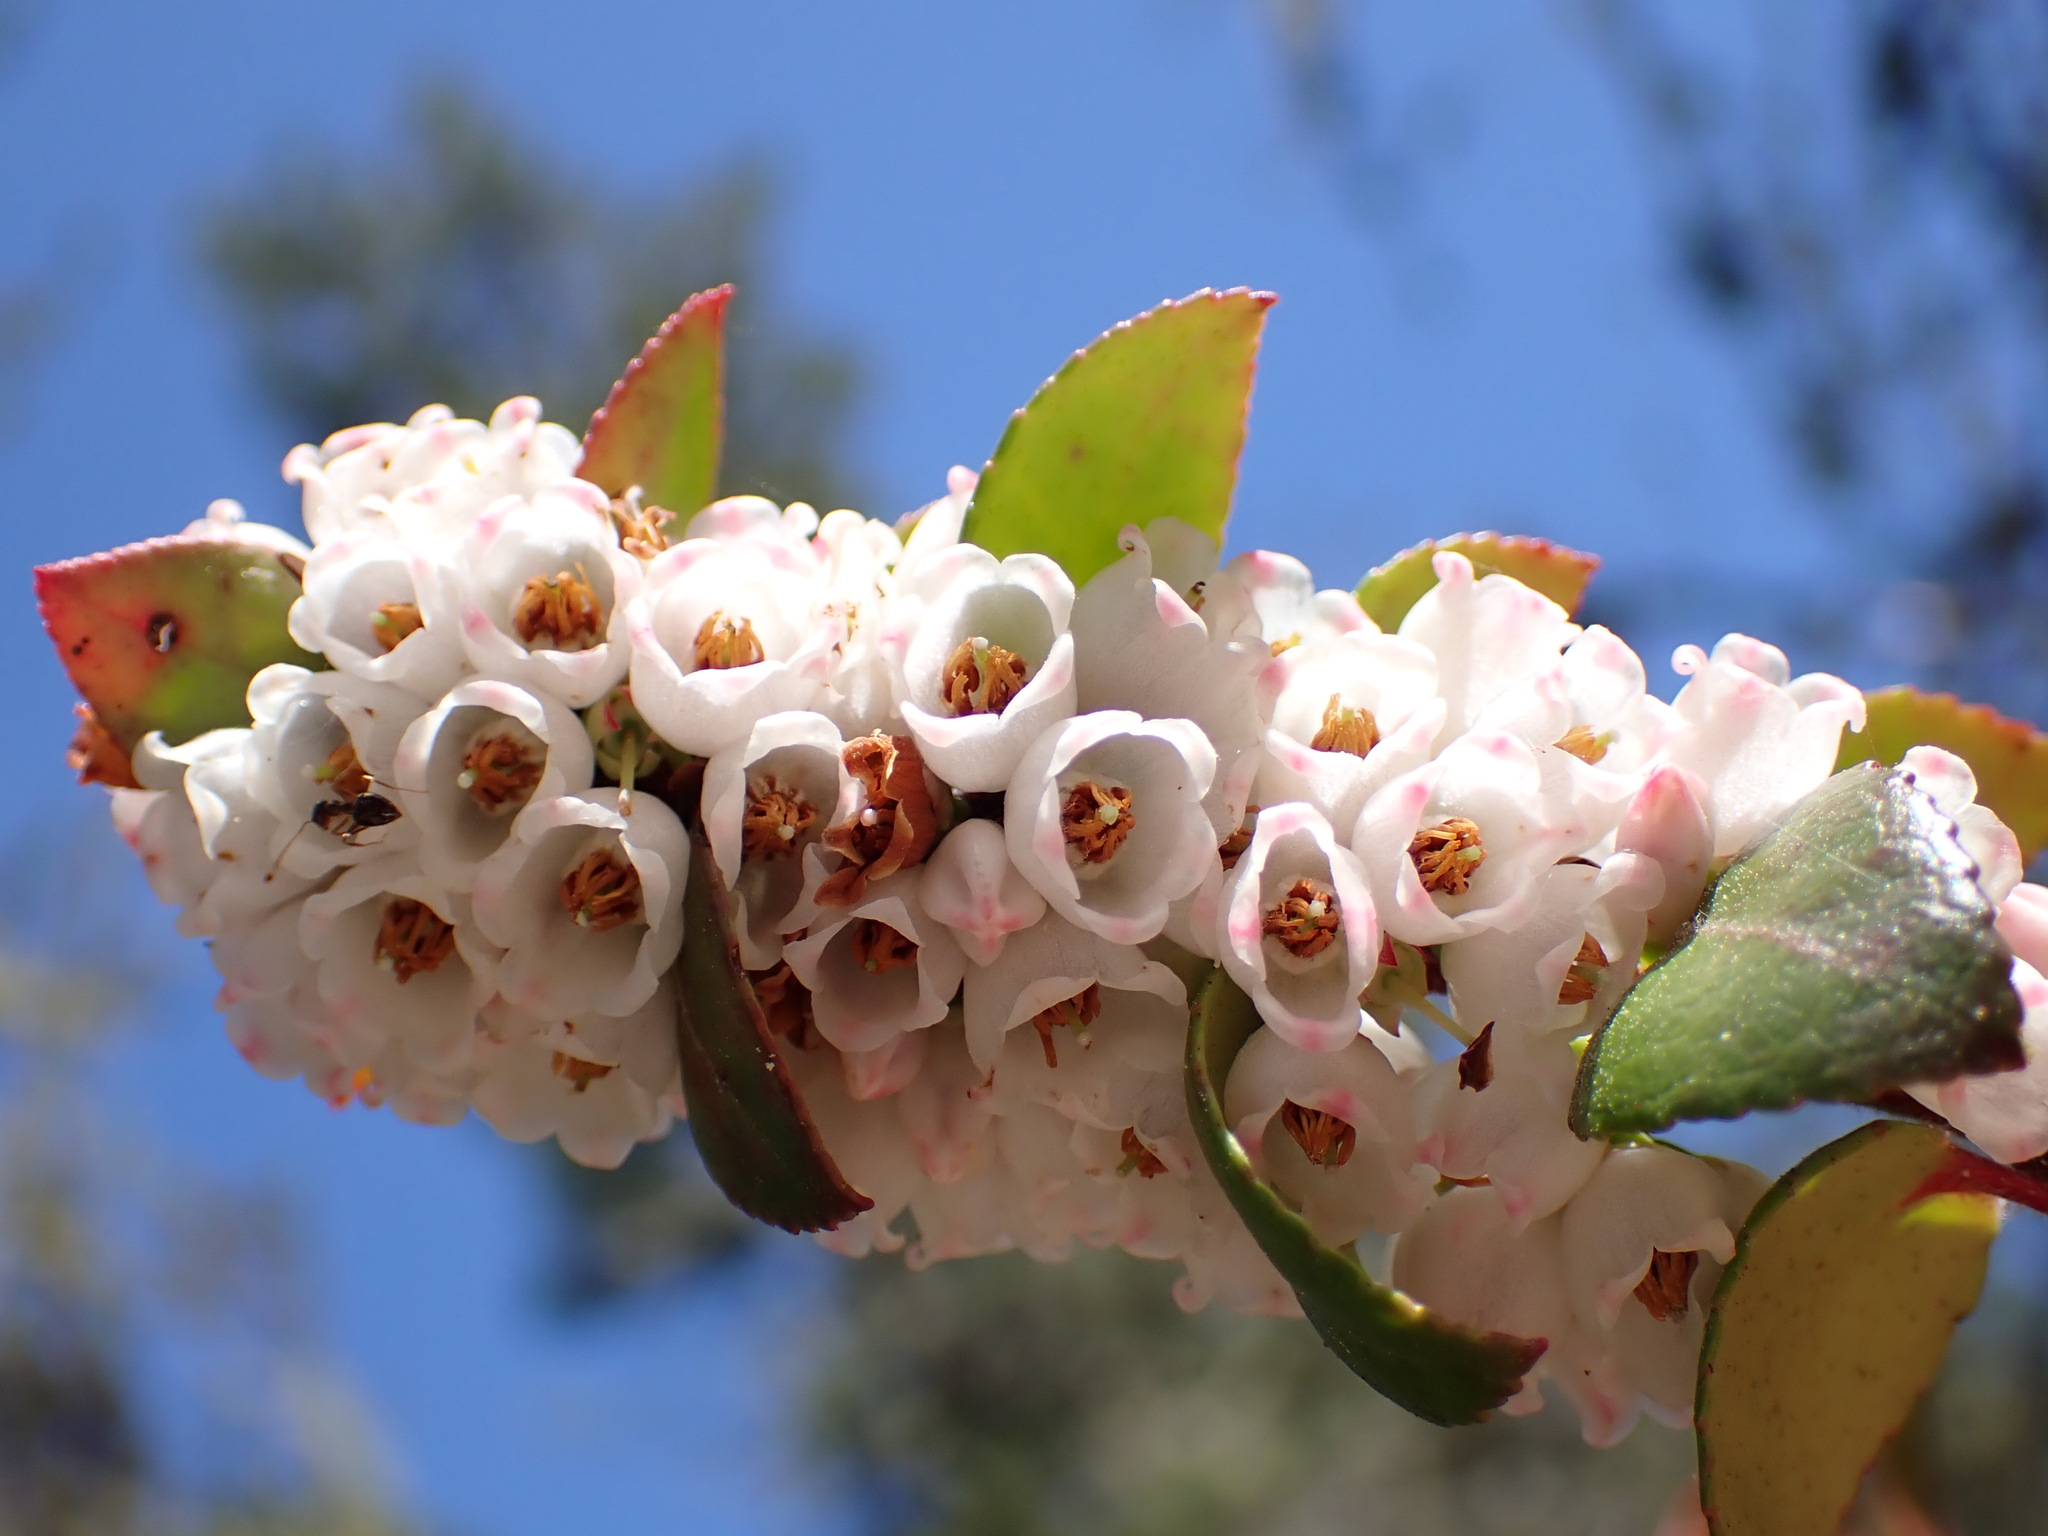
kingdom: Plantae
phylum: Tracheophyta
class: Magnoliopsida
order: Ericales
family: Ericaceae
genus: Vaccinium
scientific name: Vaccinium ovatum
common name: California-huckleberry
